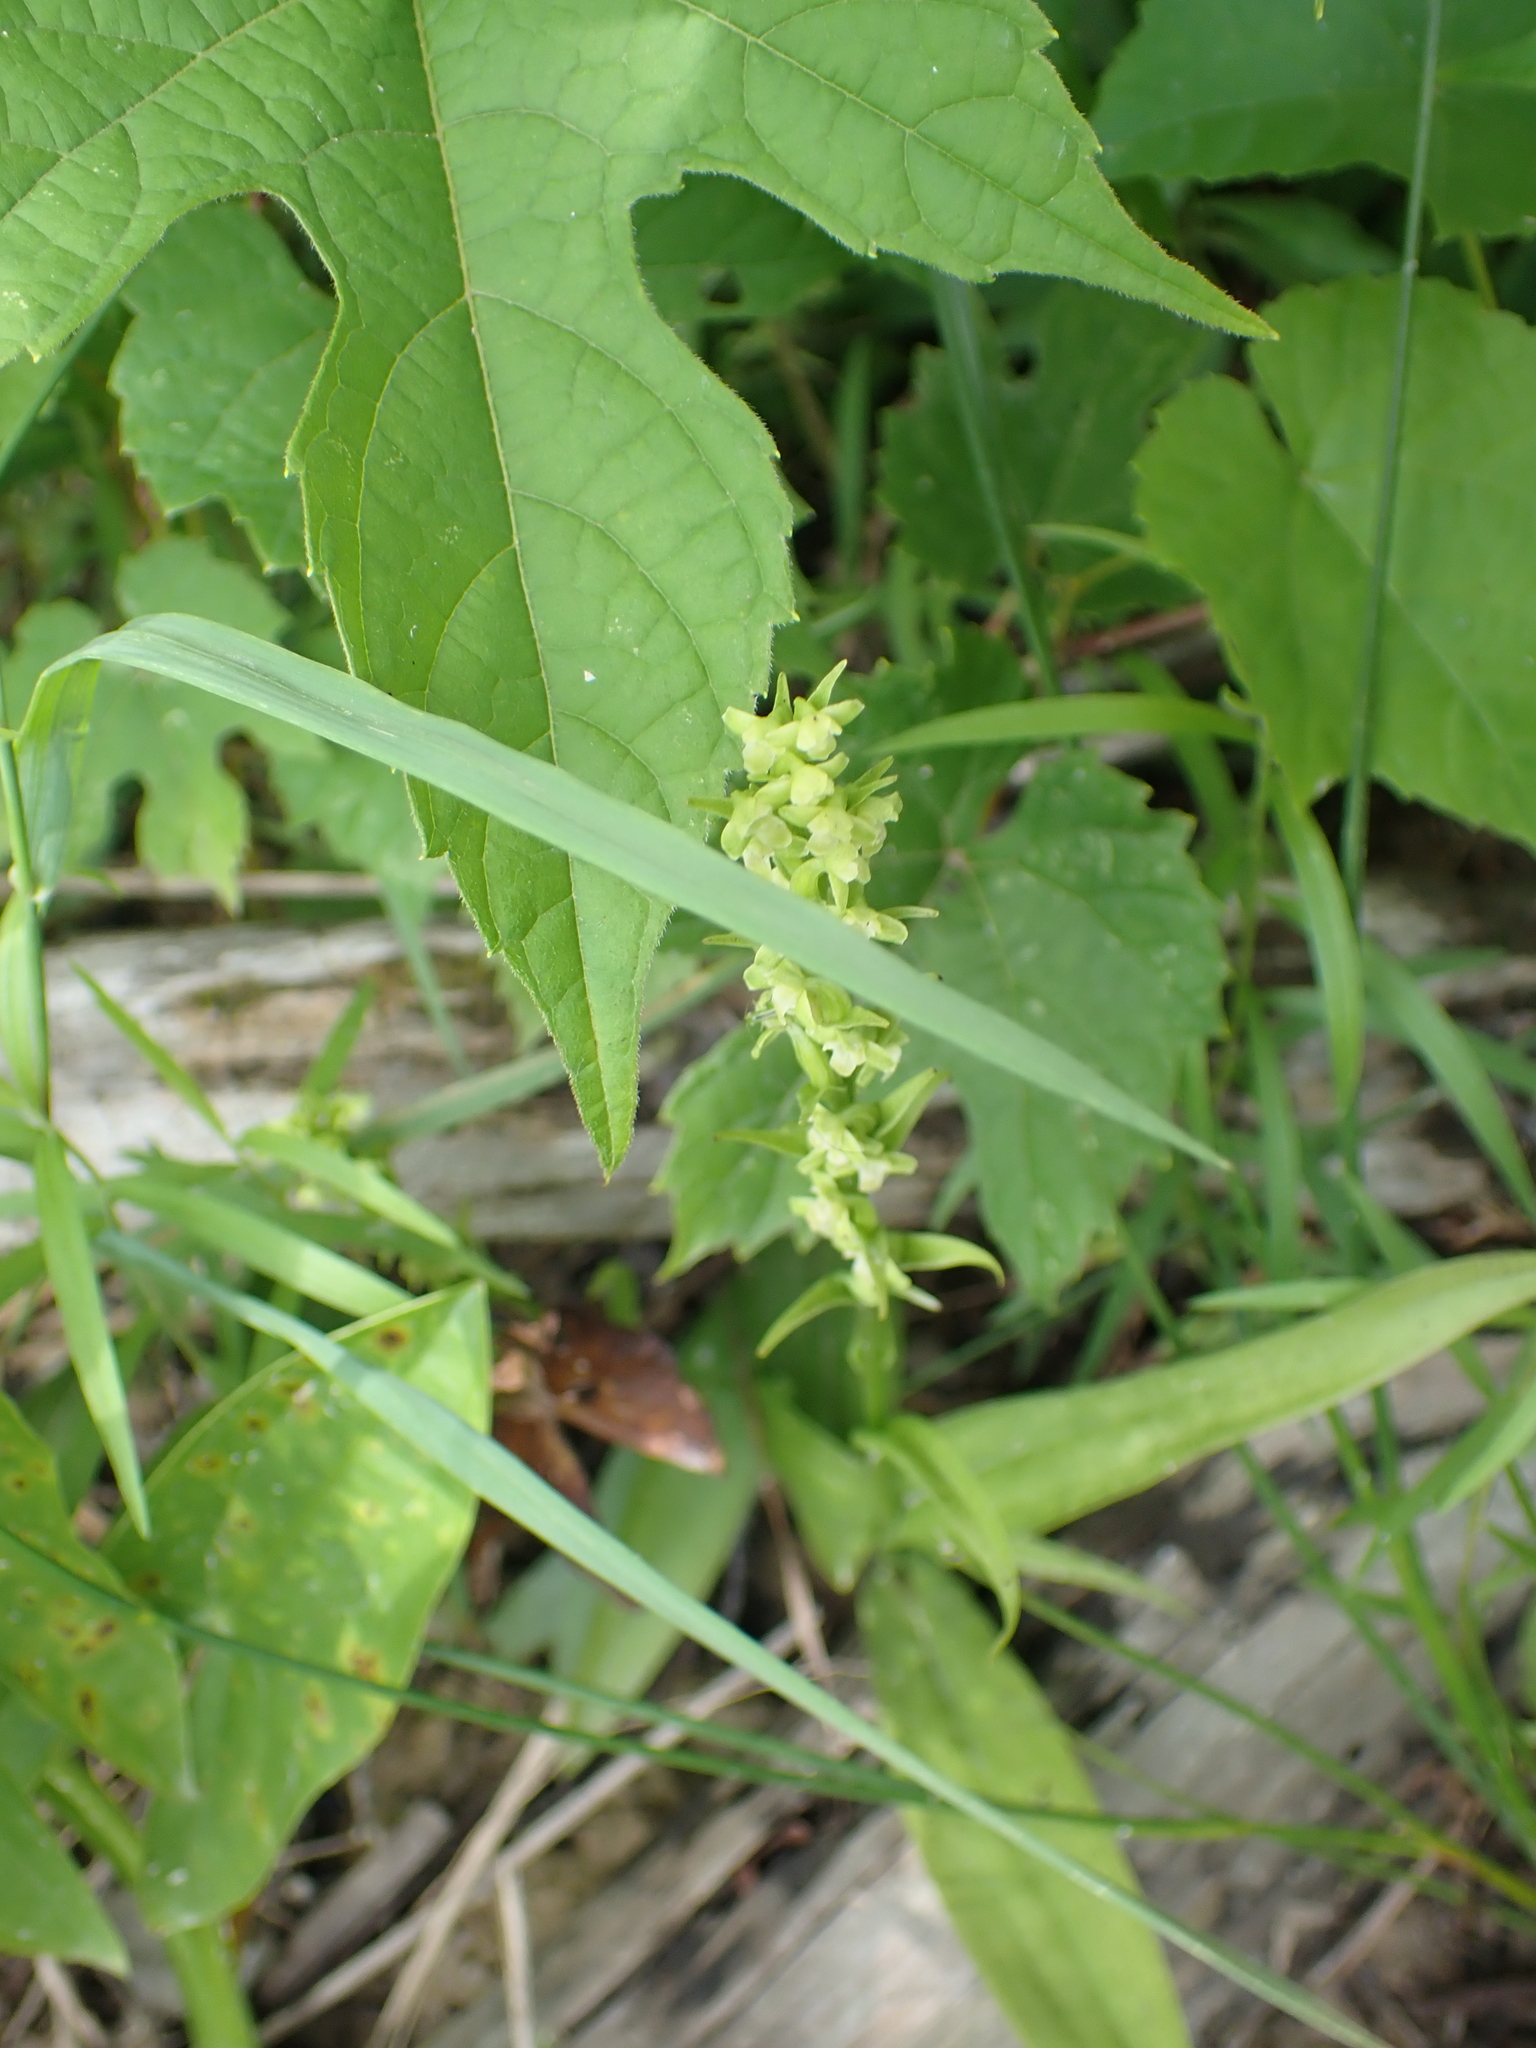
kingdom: Plantae
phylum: Tracheophyta
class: Liliopsida
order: Asparagales
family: Orchidaceae
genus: Platanthera
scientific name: Platanthera flava
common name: Gypsy-spikes
